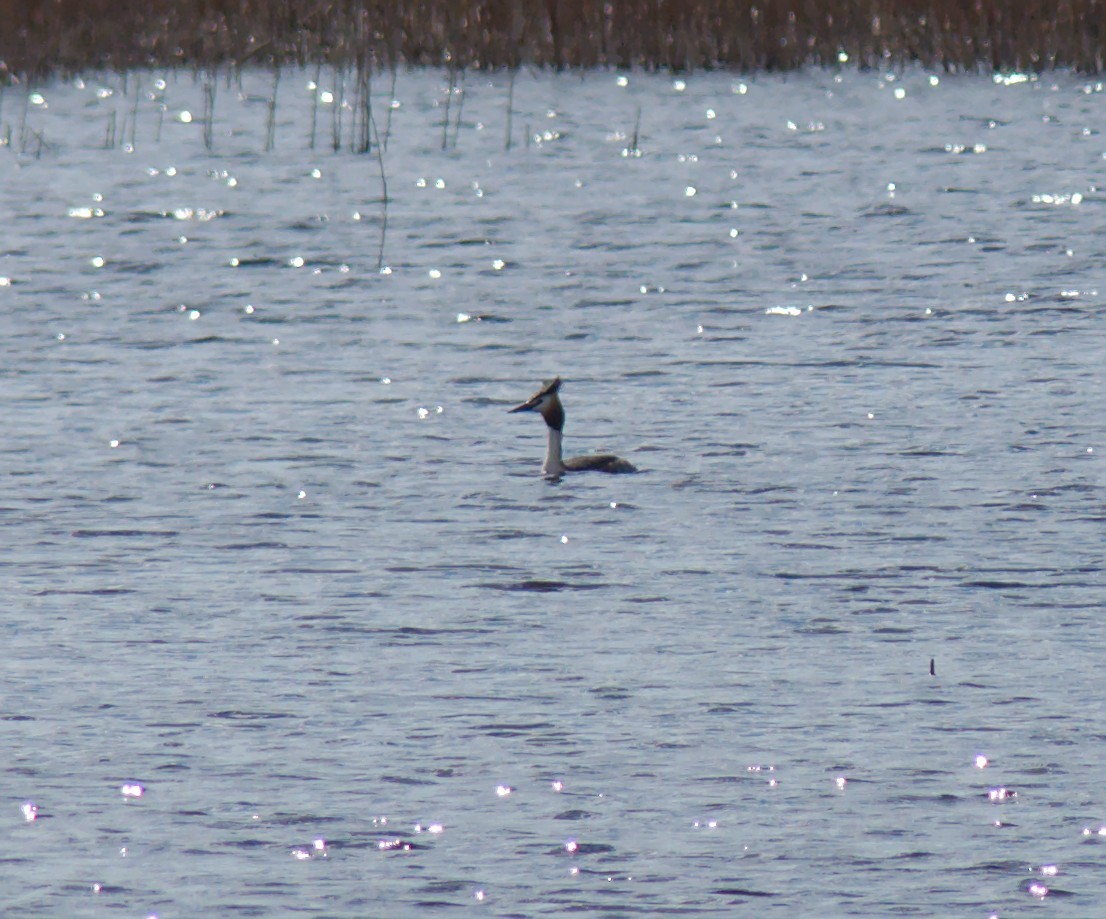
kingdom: Animalia
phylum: Chordata
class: Aves
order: Podicipediformes
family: Podicipedidae
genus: Podiceps
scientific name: Podiceps cristatus
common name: Great crested grebe
